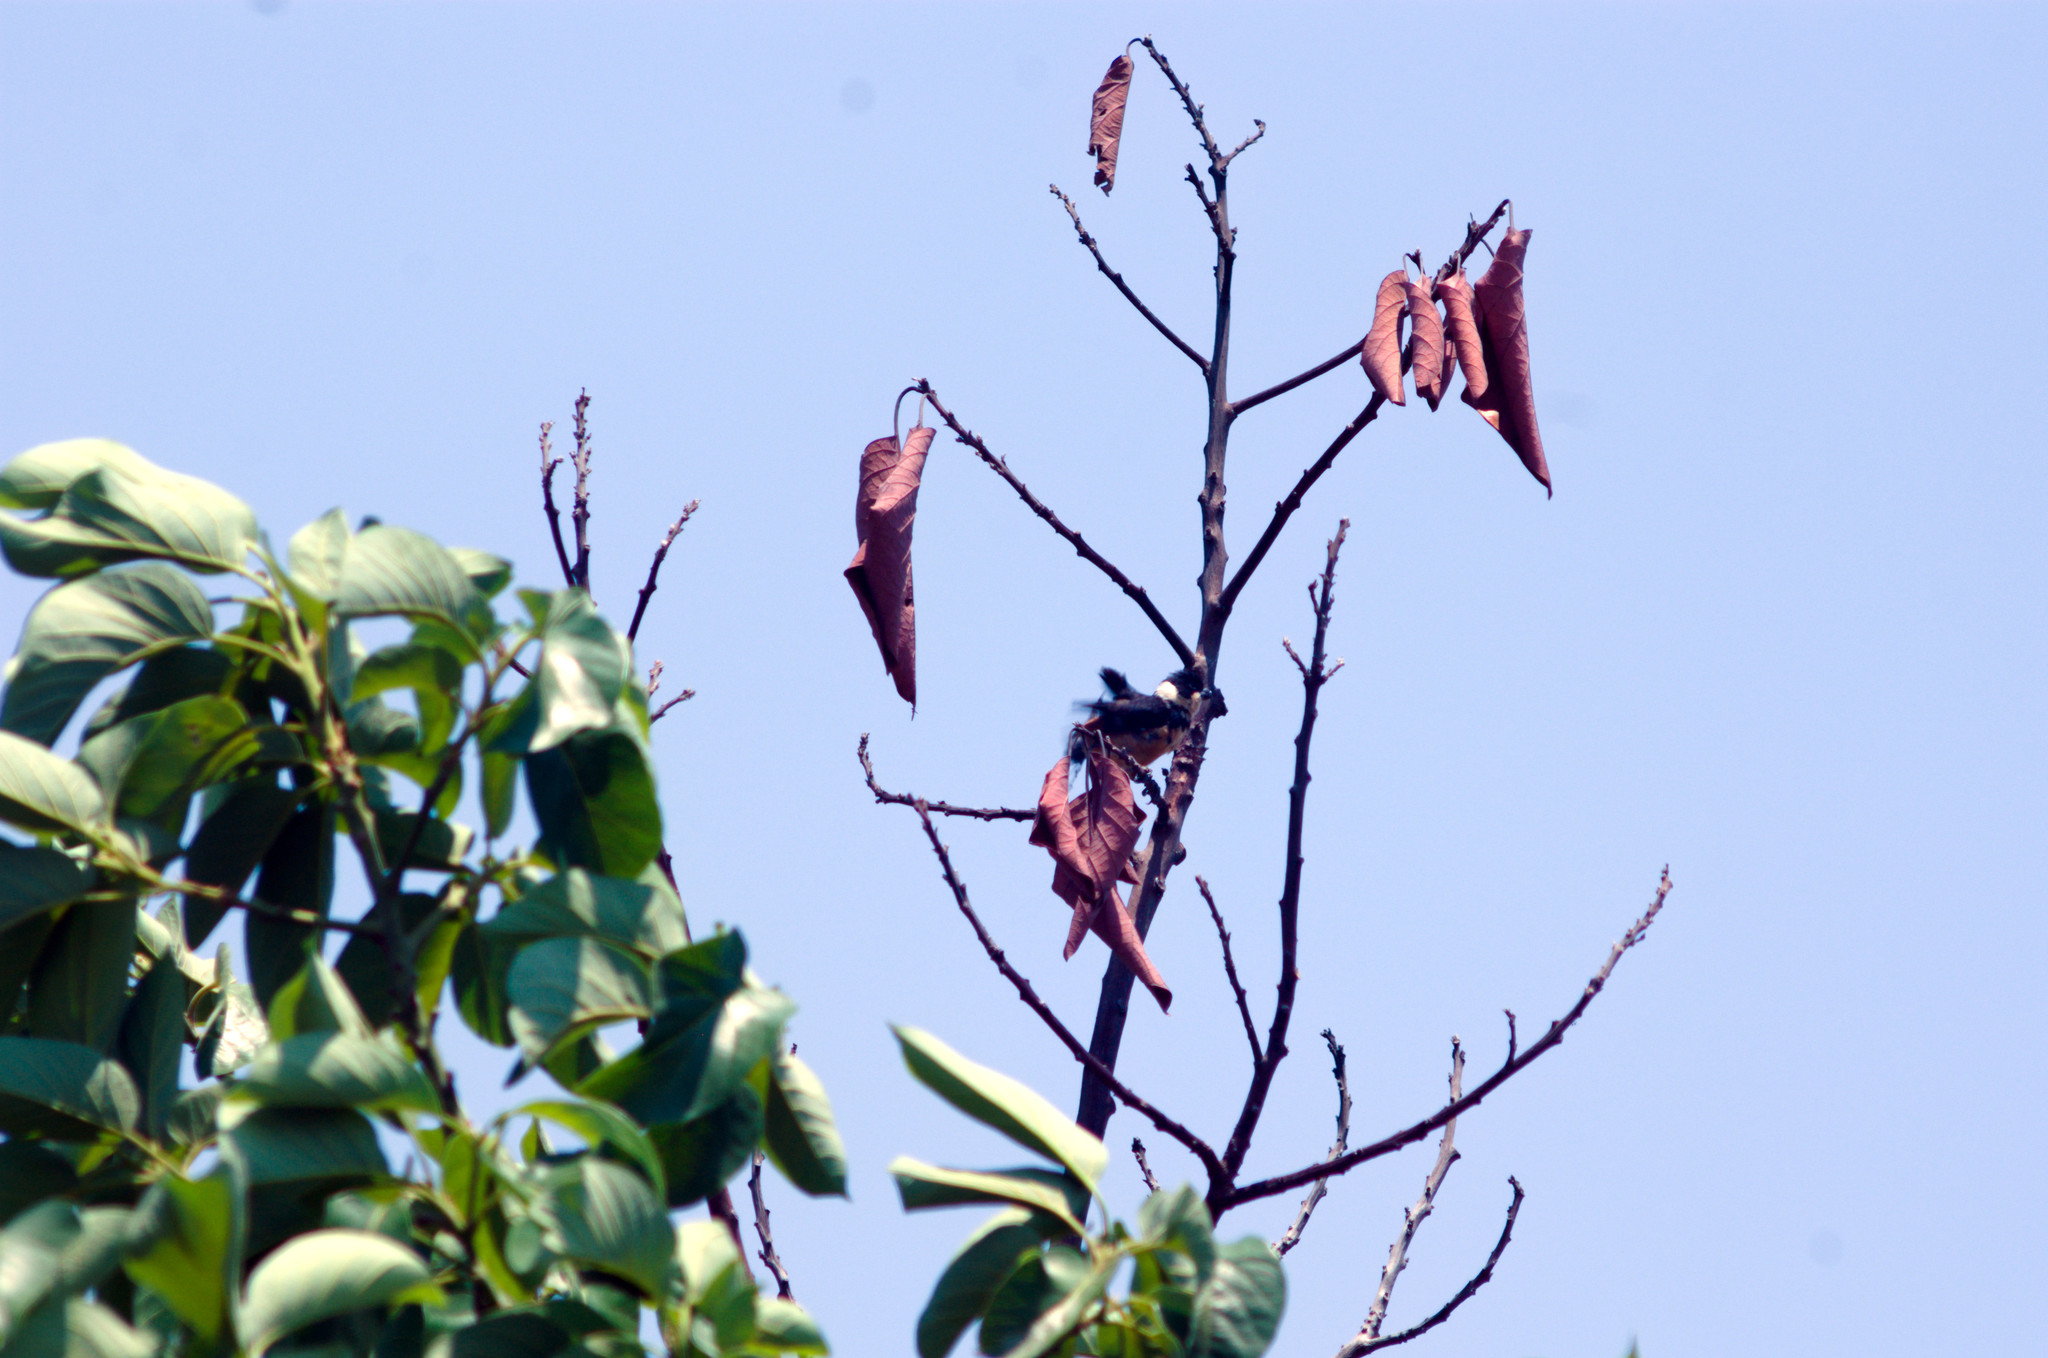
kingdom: Animalia
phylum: Chordata
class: Aves
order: Passeriformes
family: Thraupidae
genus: Sporophila
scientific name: Sporophila torqueola
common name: White-collared seedeater
